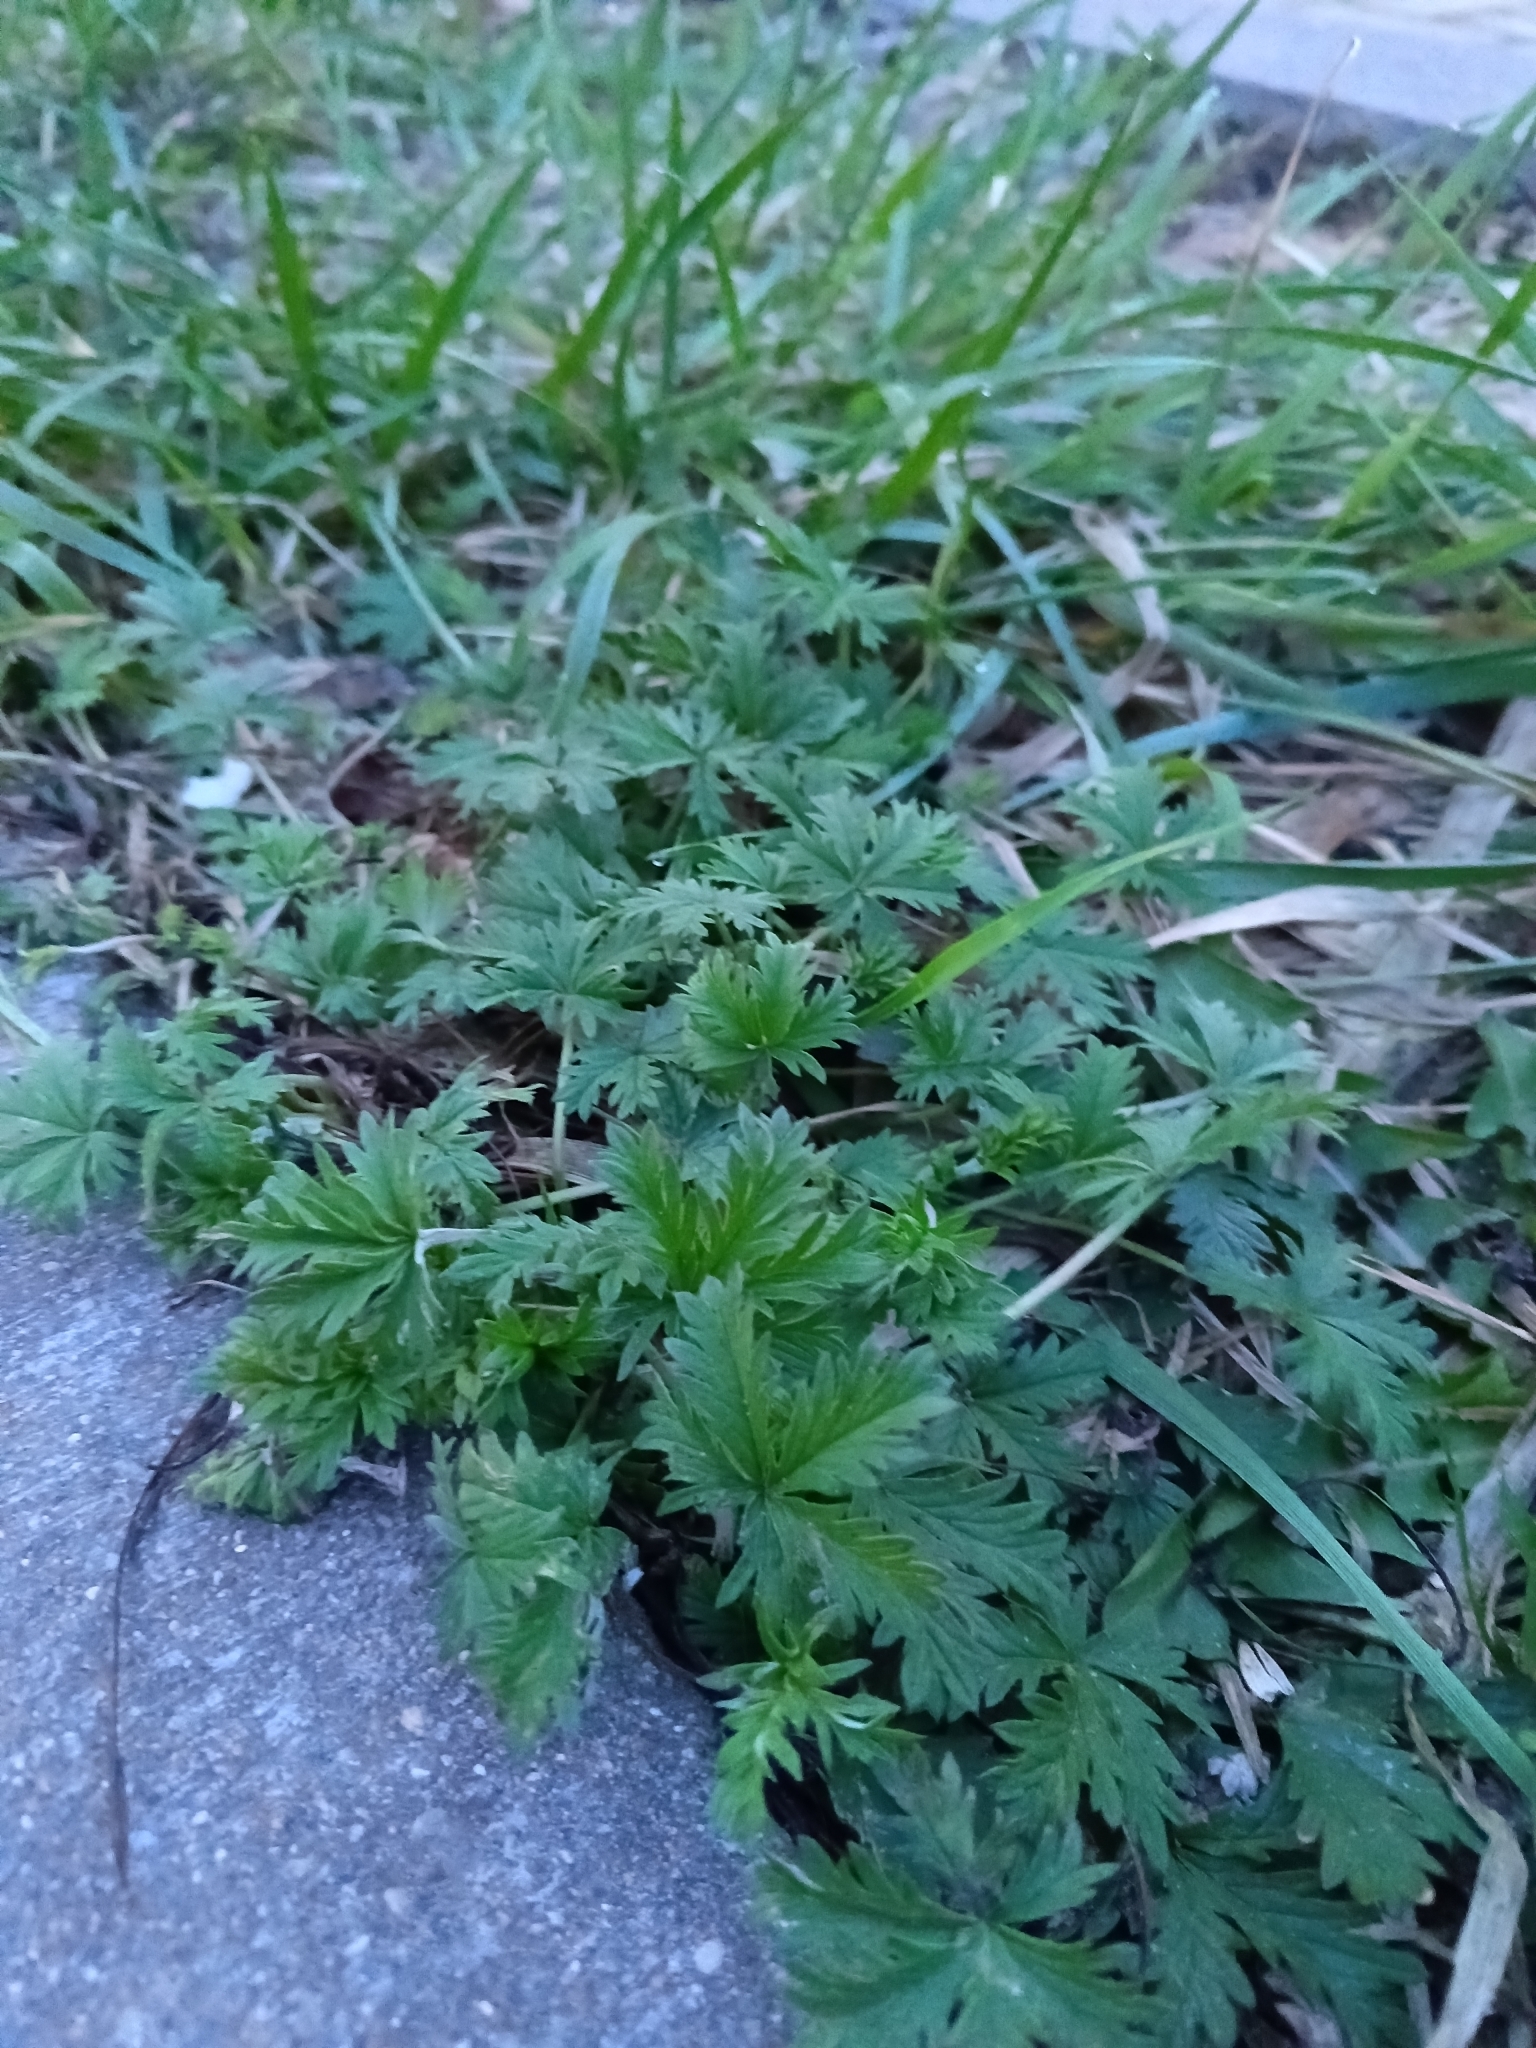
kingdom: Plantae
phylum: Tracheophyta
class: Magnoliopsida
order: Rosales
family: Rosaceae
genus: Potentilla
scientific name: Potentilla argentea
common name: Hoary cinquefoil
